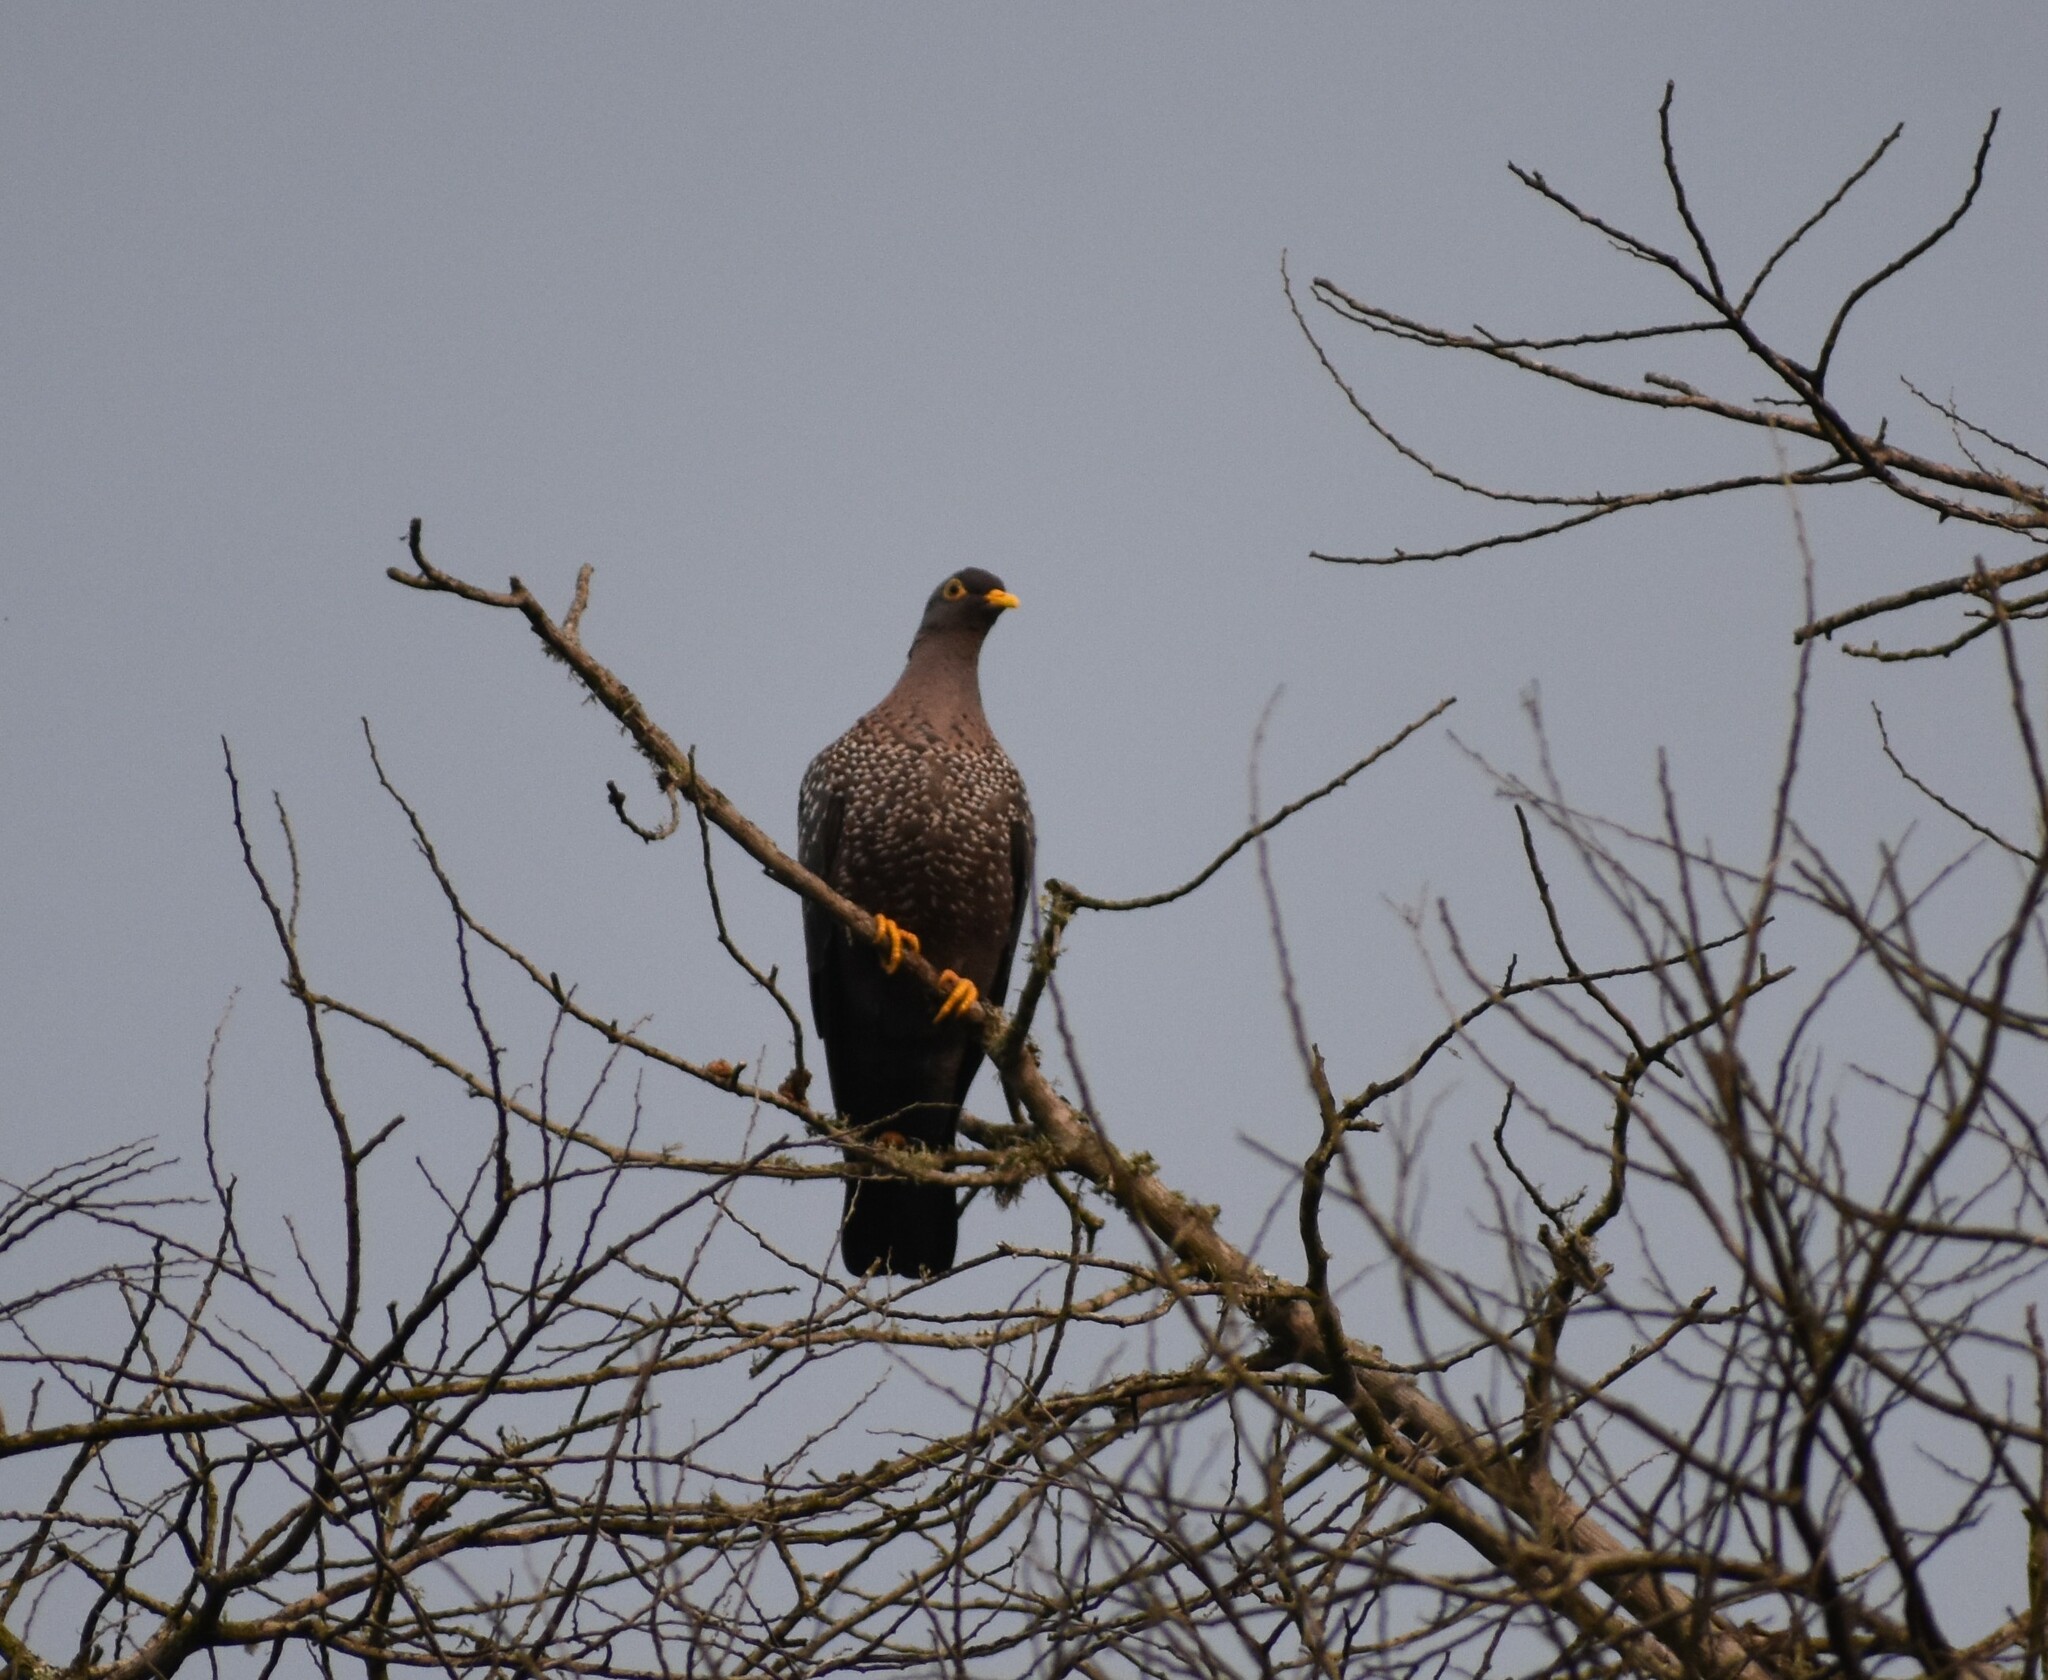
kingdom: Animalia
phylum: Chordata
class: Aves
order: Columbiformes
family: Columbidae
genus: Columba
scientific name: Columba arquatrix
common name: African olive pigeon
